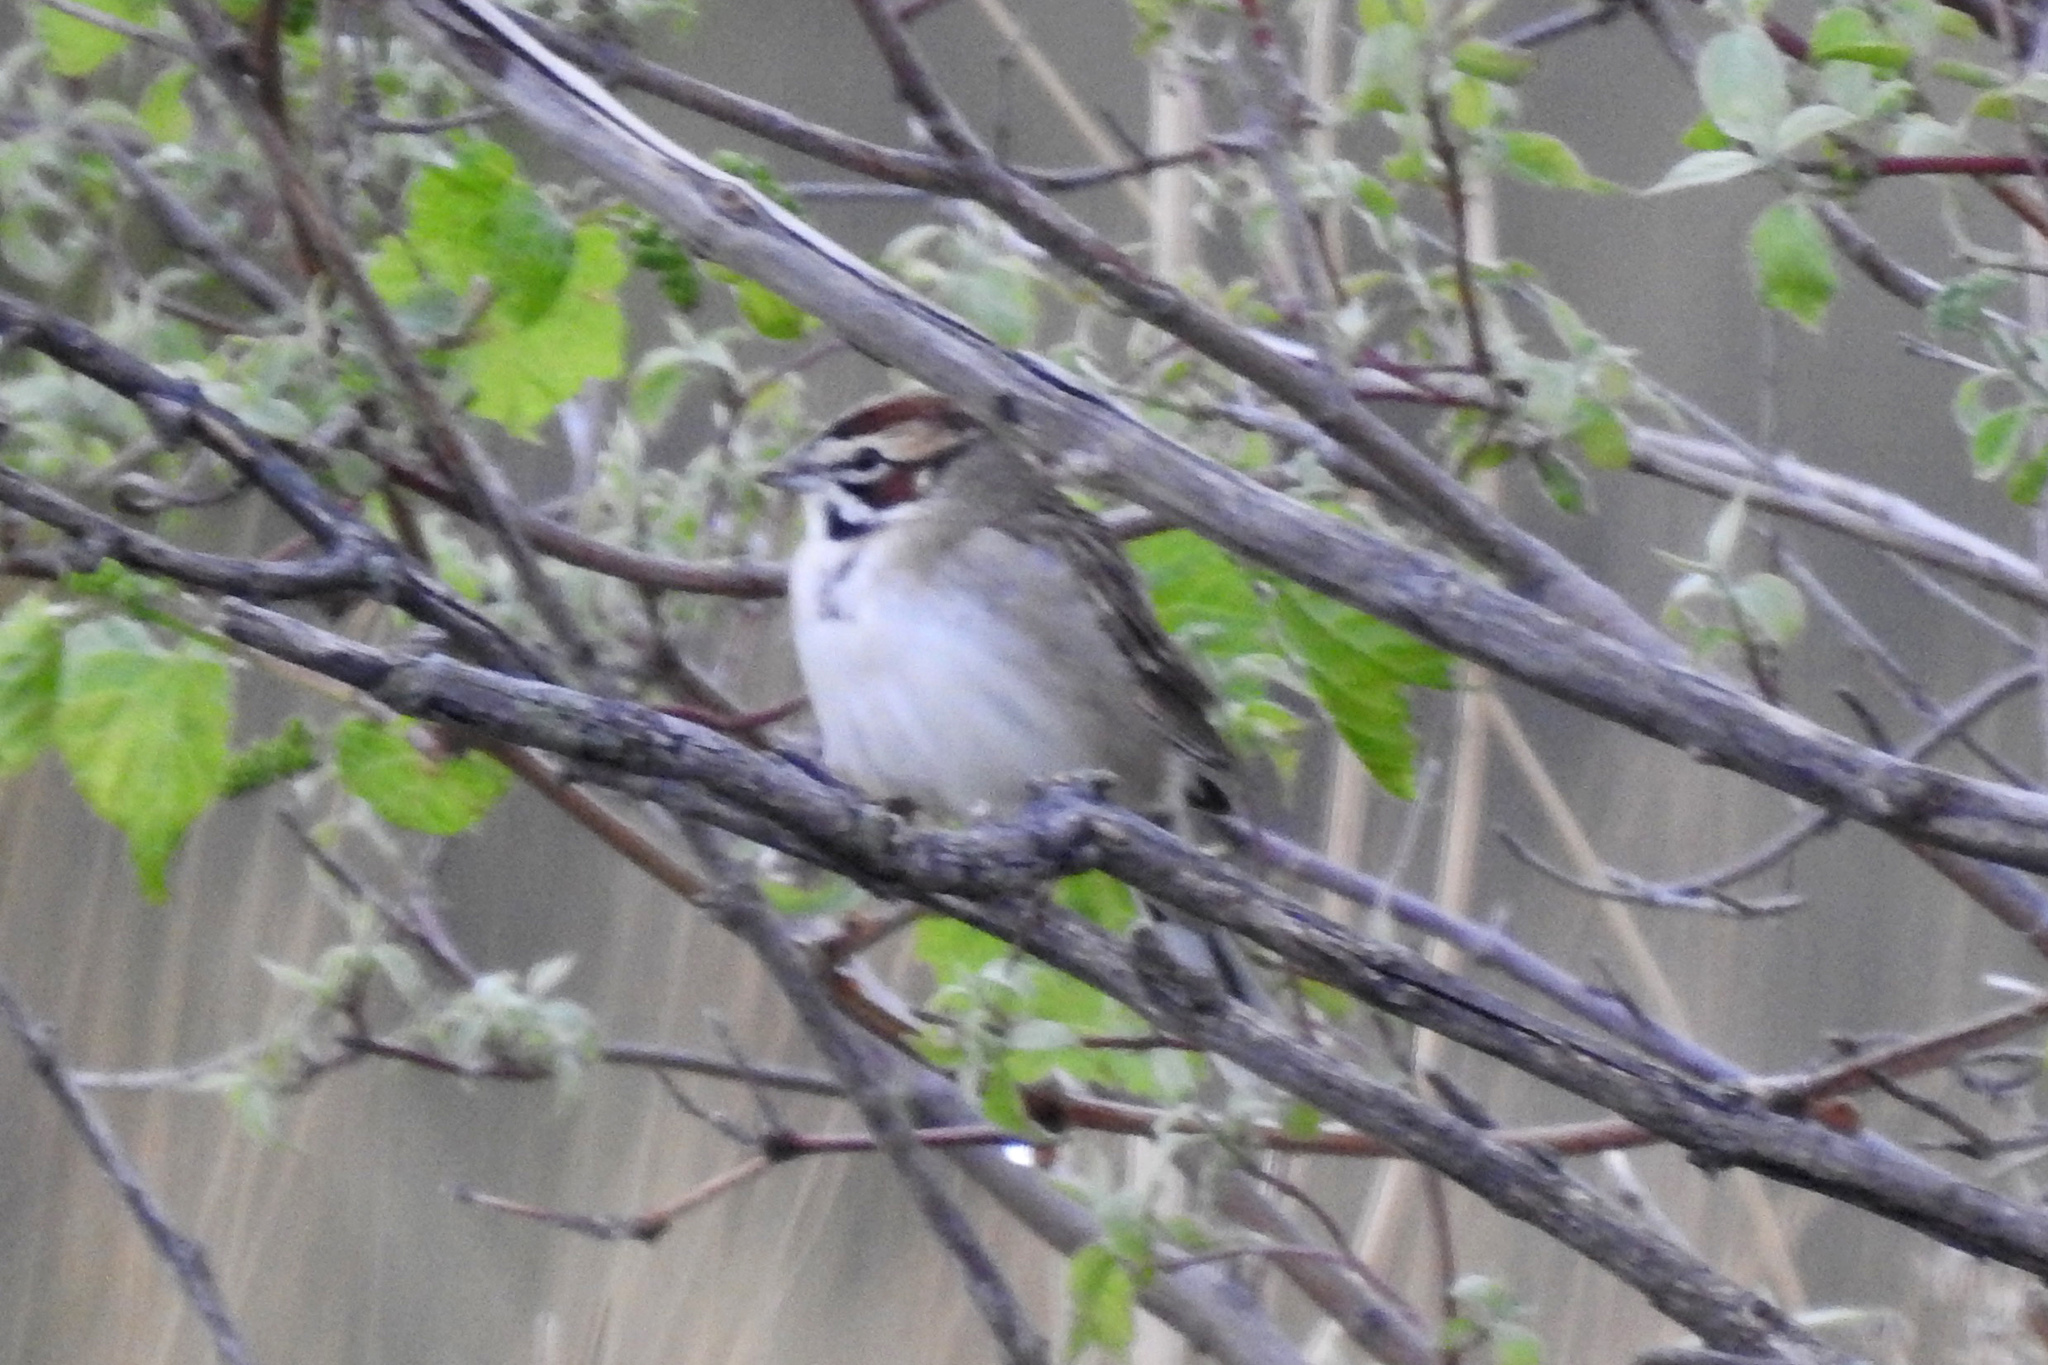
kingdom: Animalia
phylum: Chordata
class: Aves
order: Passeriformes
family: Passerellidae
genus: Chondestes
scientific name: Chondestes grammacus
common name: Lark sparrow
